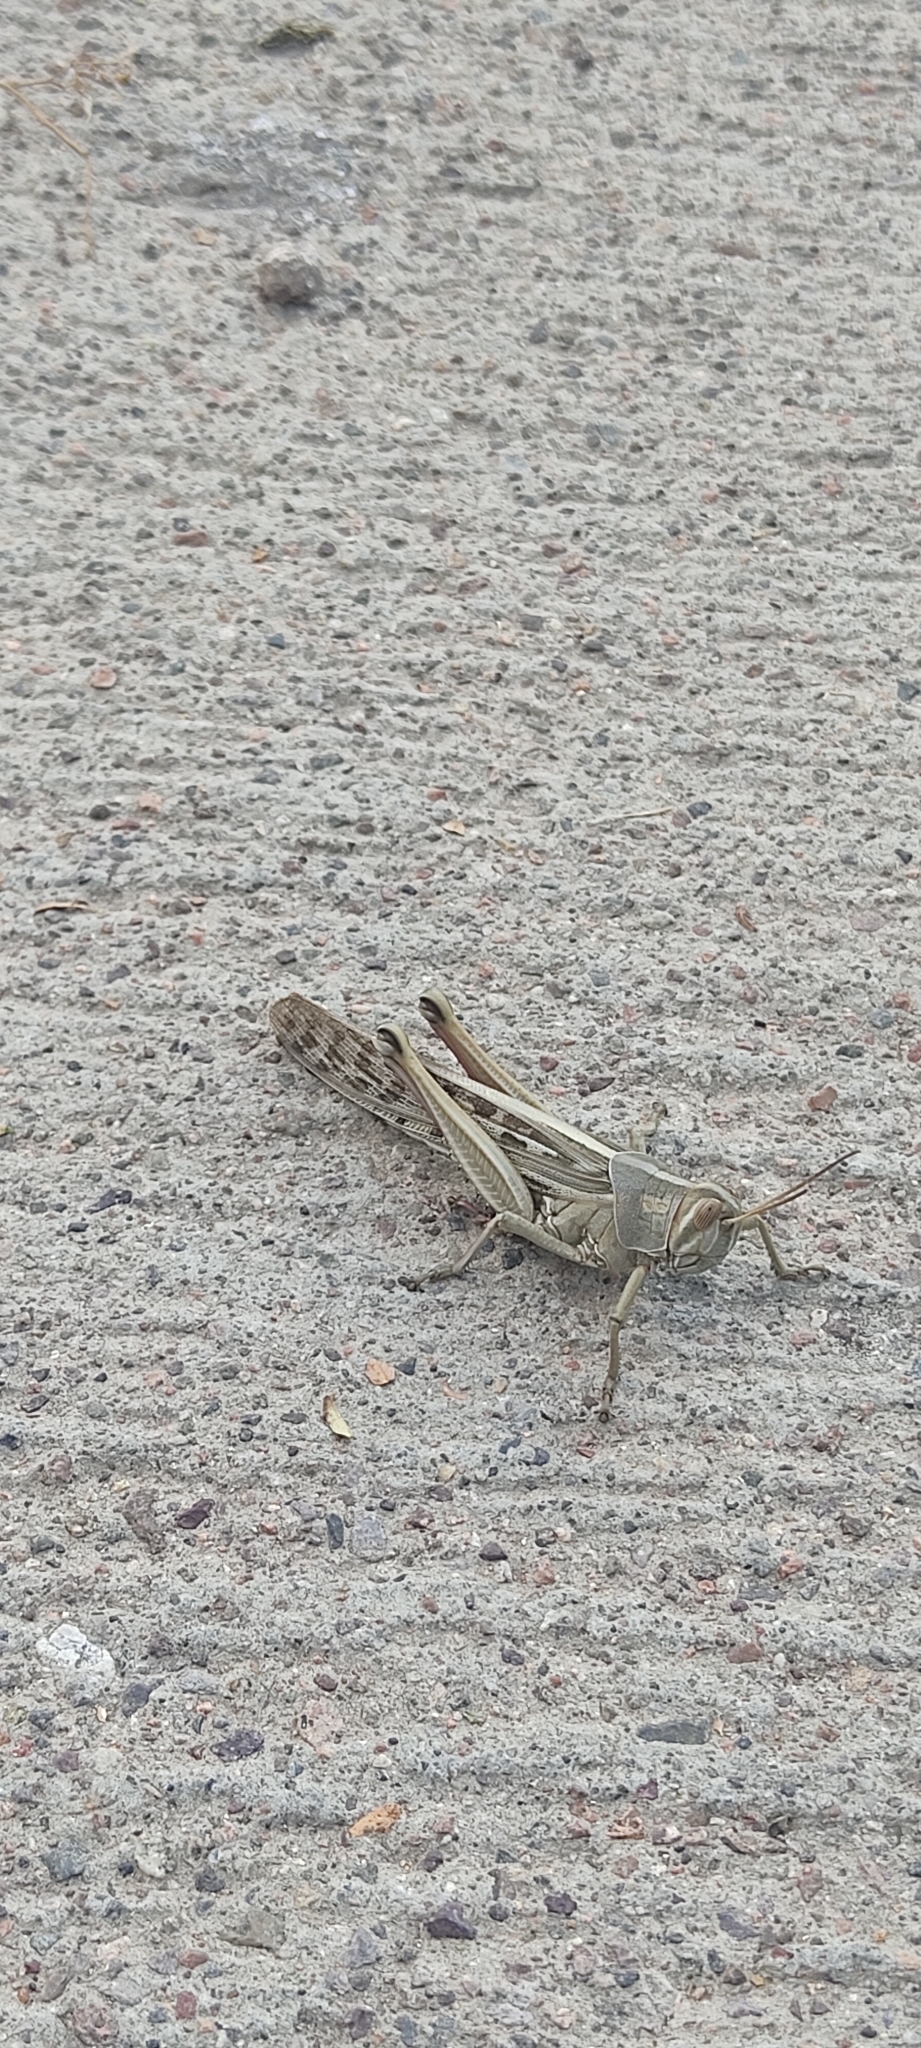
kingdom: Animalia
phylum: Arthropoda
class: Insecta
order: Orthoptera
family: Acrididae
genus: Schistocerca
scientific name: Schistocerca piceifrons
